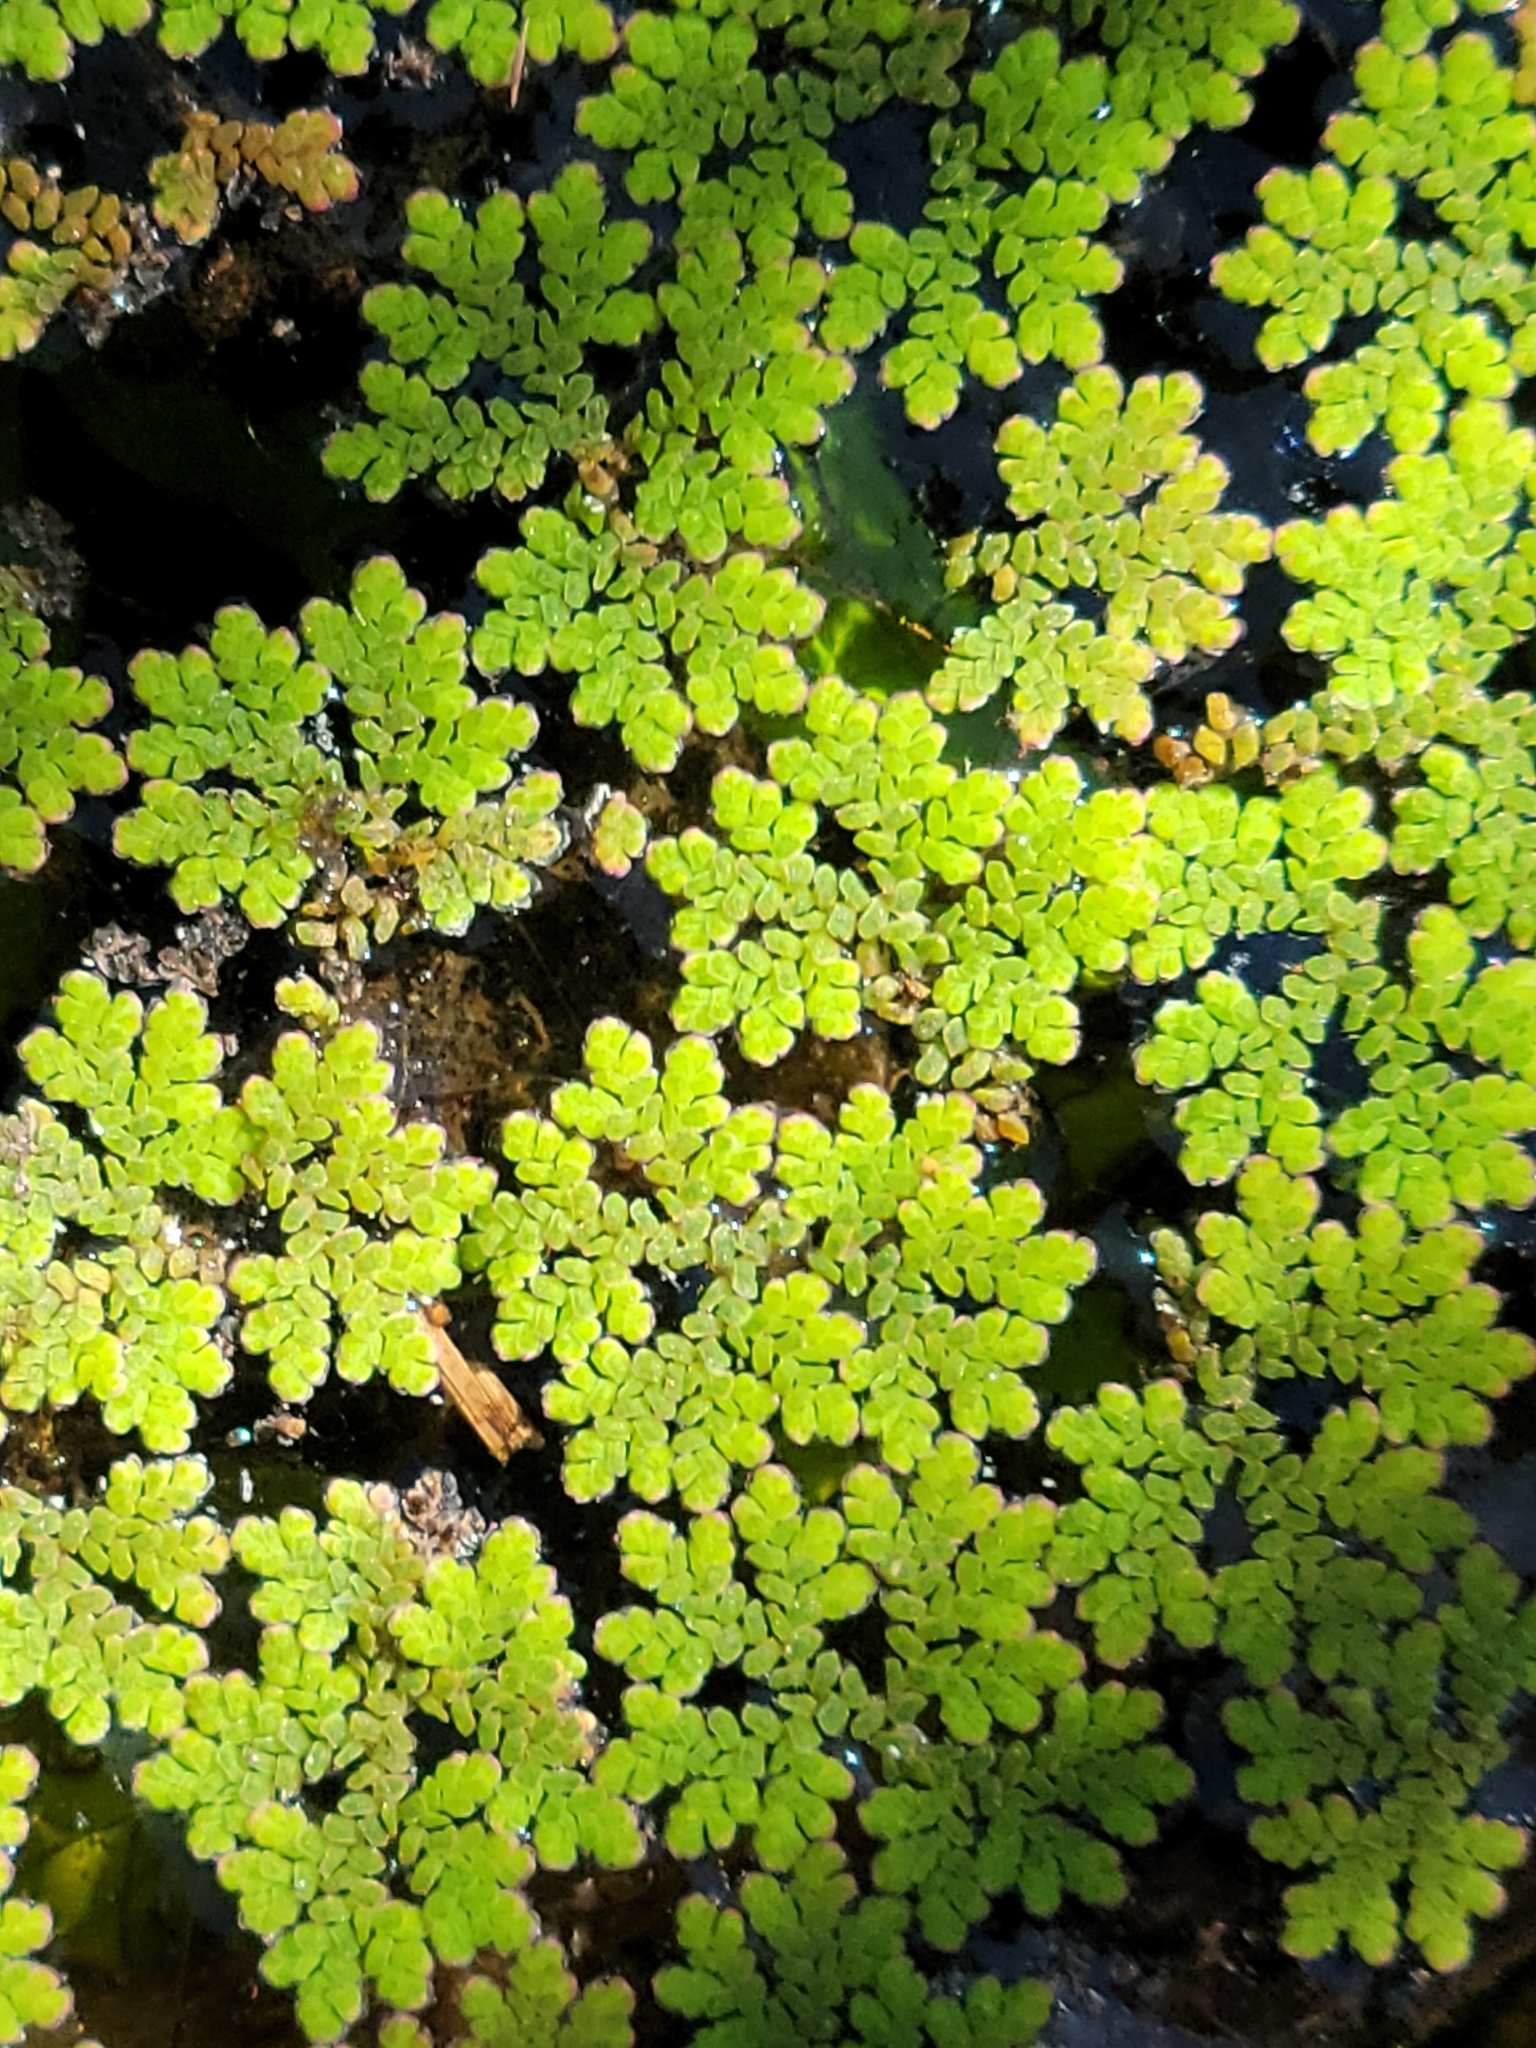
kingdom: Plantae
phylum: Tracheophyta
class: Polypodiopsida
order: Salviniales
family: Salviniaceae
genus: Azolla
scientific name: Azolla caroliniana
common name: Carolina mosquitofern
